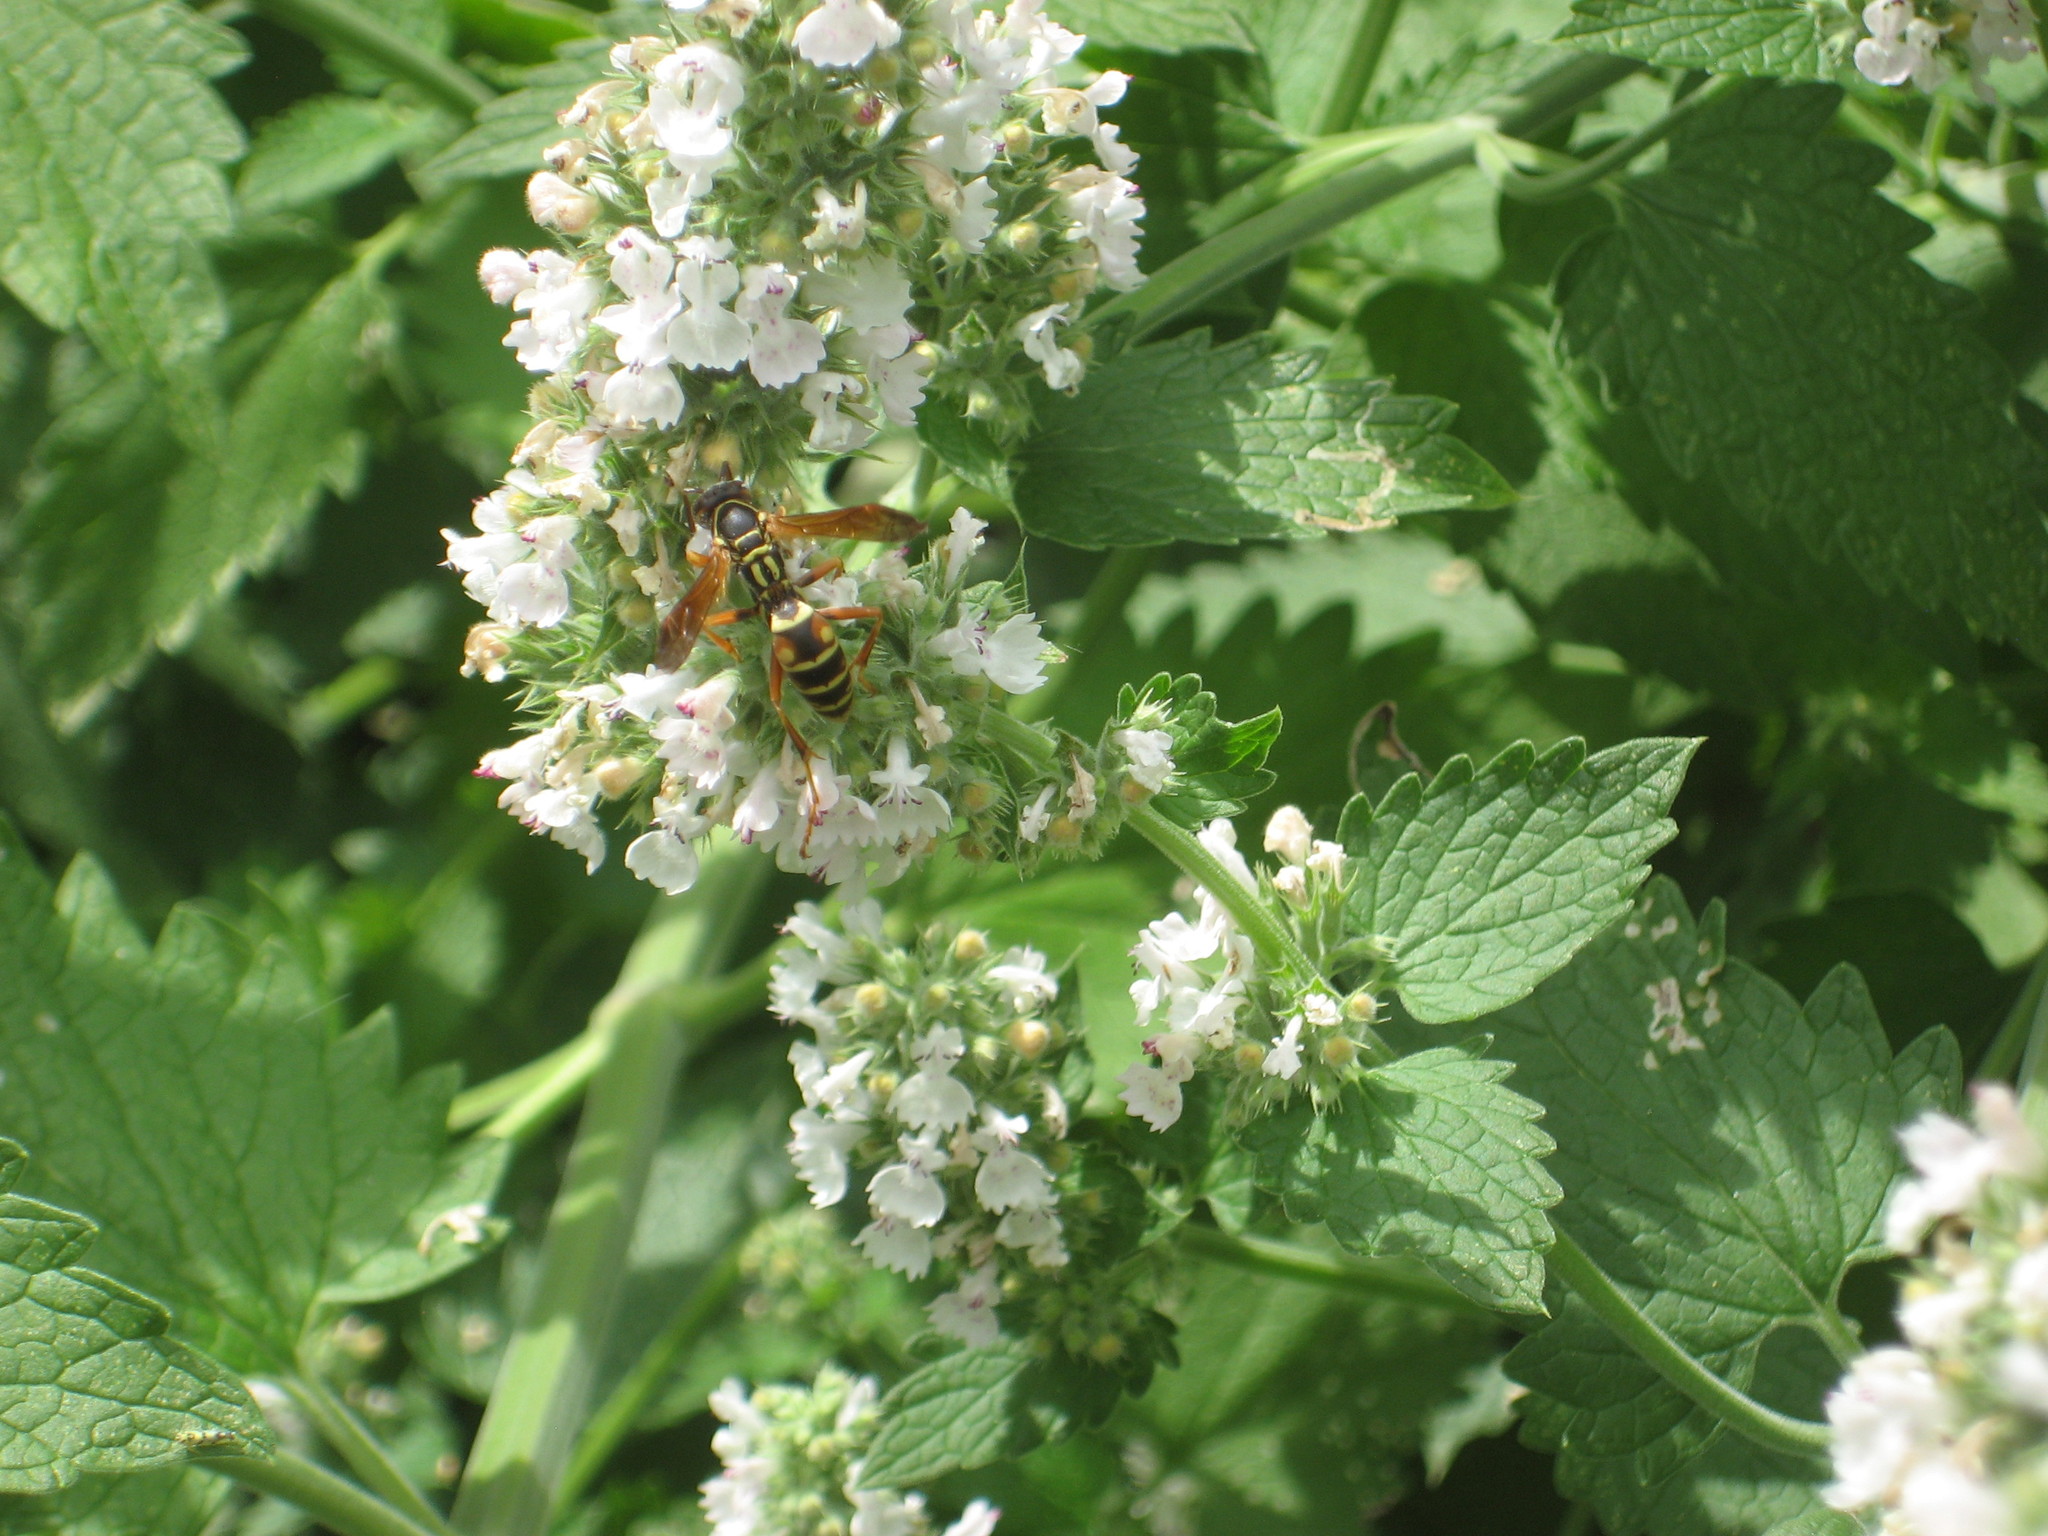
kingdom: Animalia
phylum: Arthropoda
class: Insecta
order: Hymenoptera
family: Eumenidae
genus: Polistes
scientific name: Polistes fuscatus
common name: Dark paper wasp
